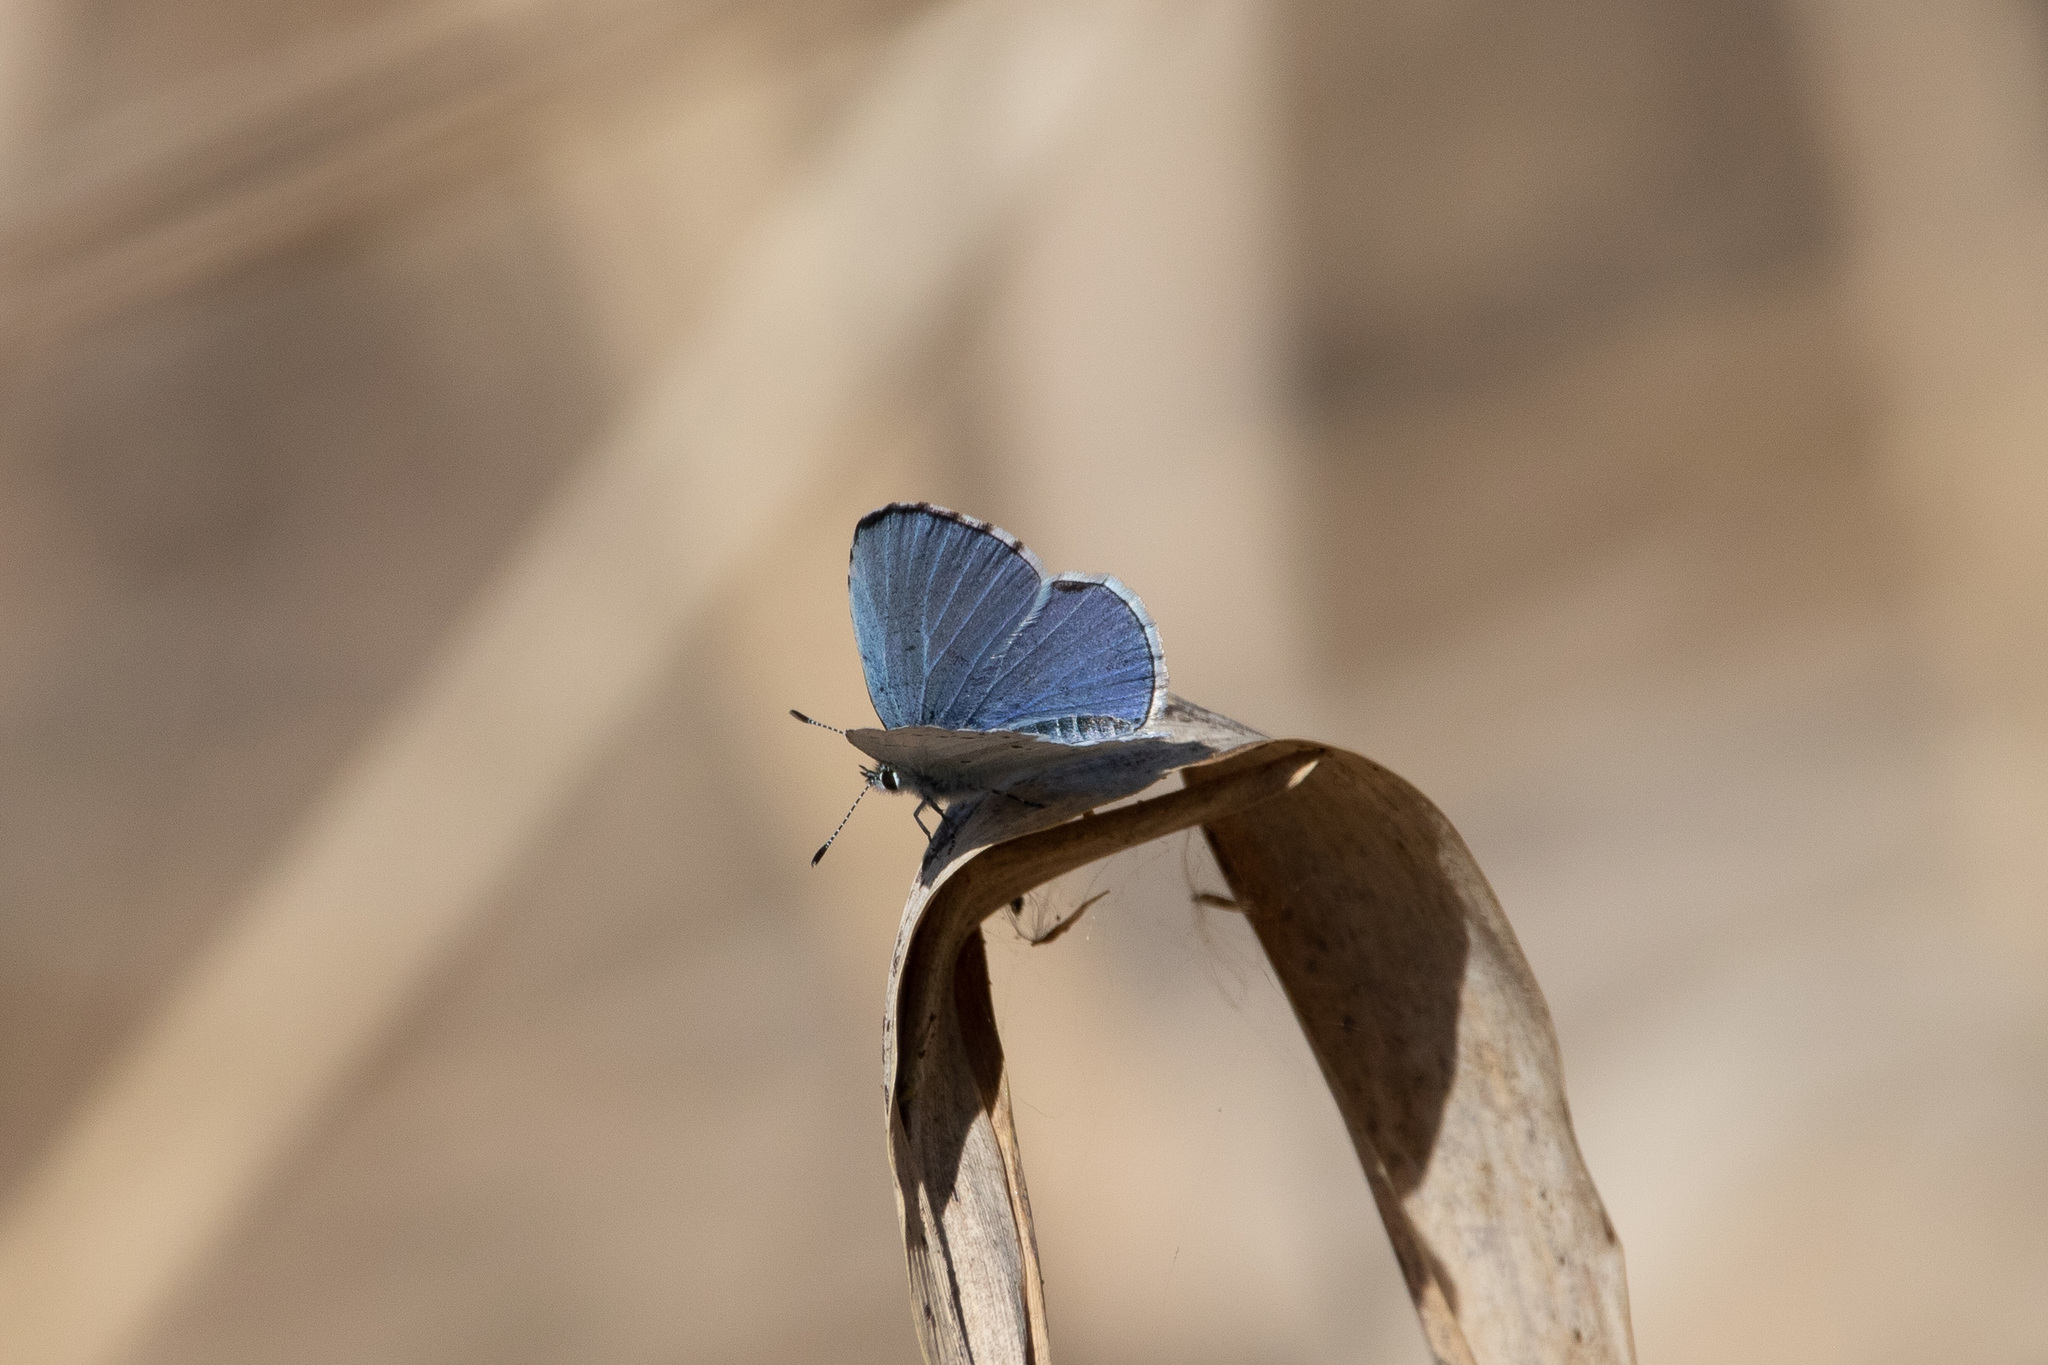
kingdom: Animalia
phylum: Arthropoda
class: Insecta
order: Lepidoptera
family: Lycaenidae
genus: Celastrina
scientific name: Celastrina argiolus
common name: Holly blue
